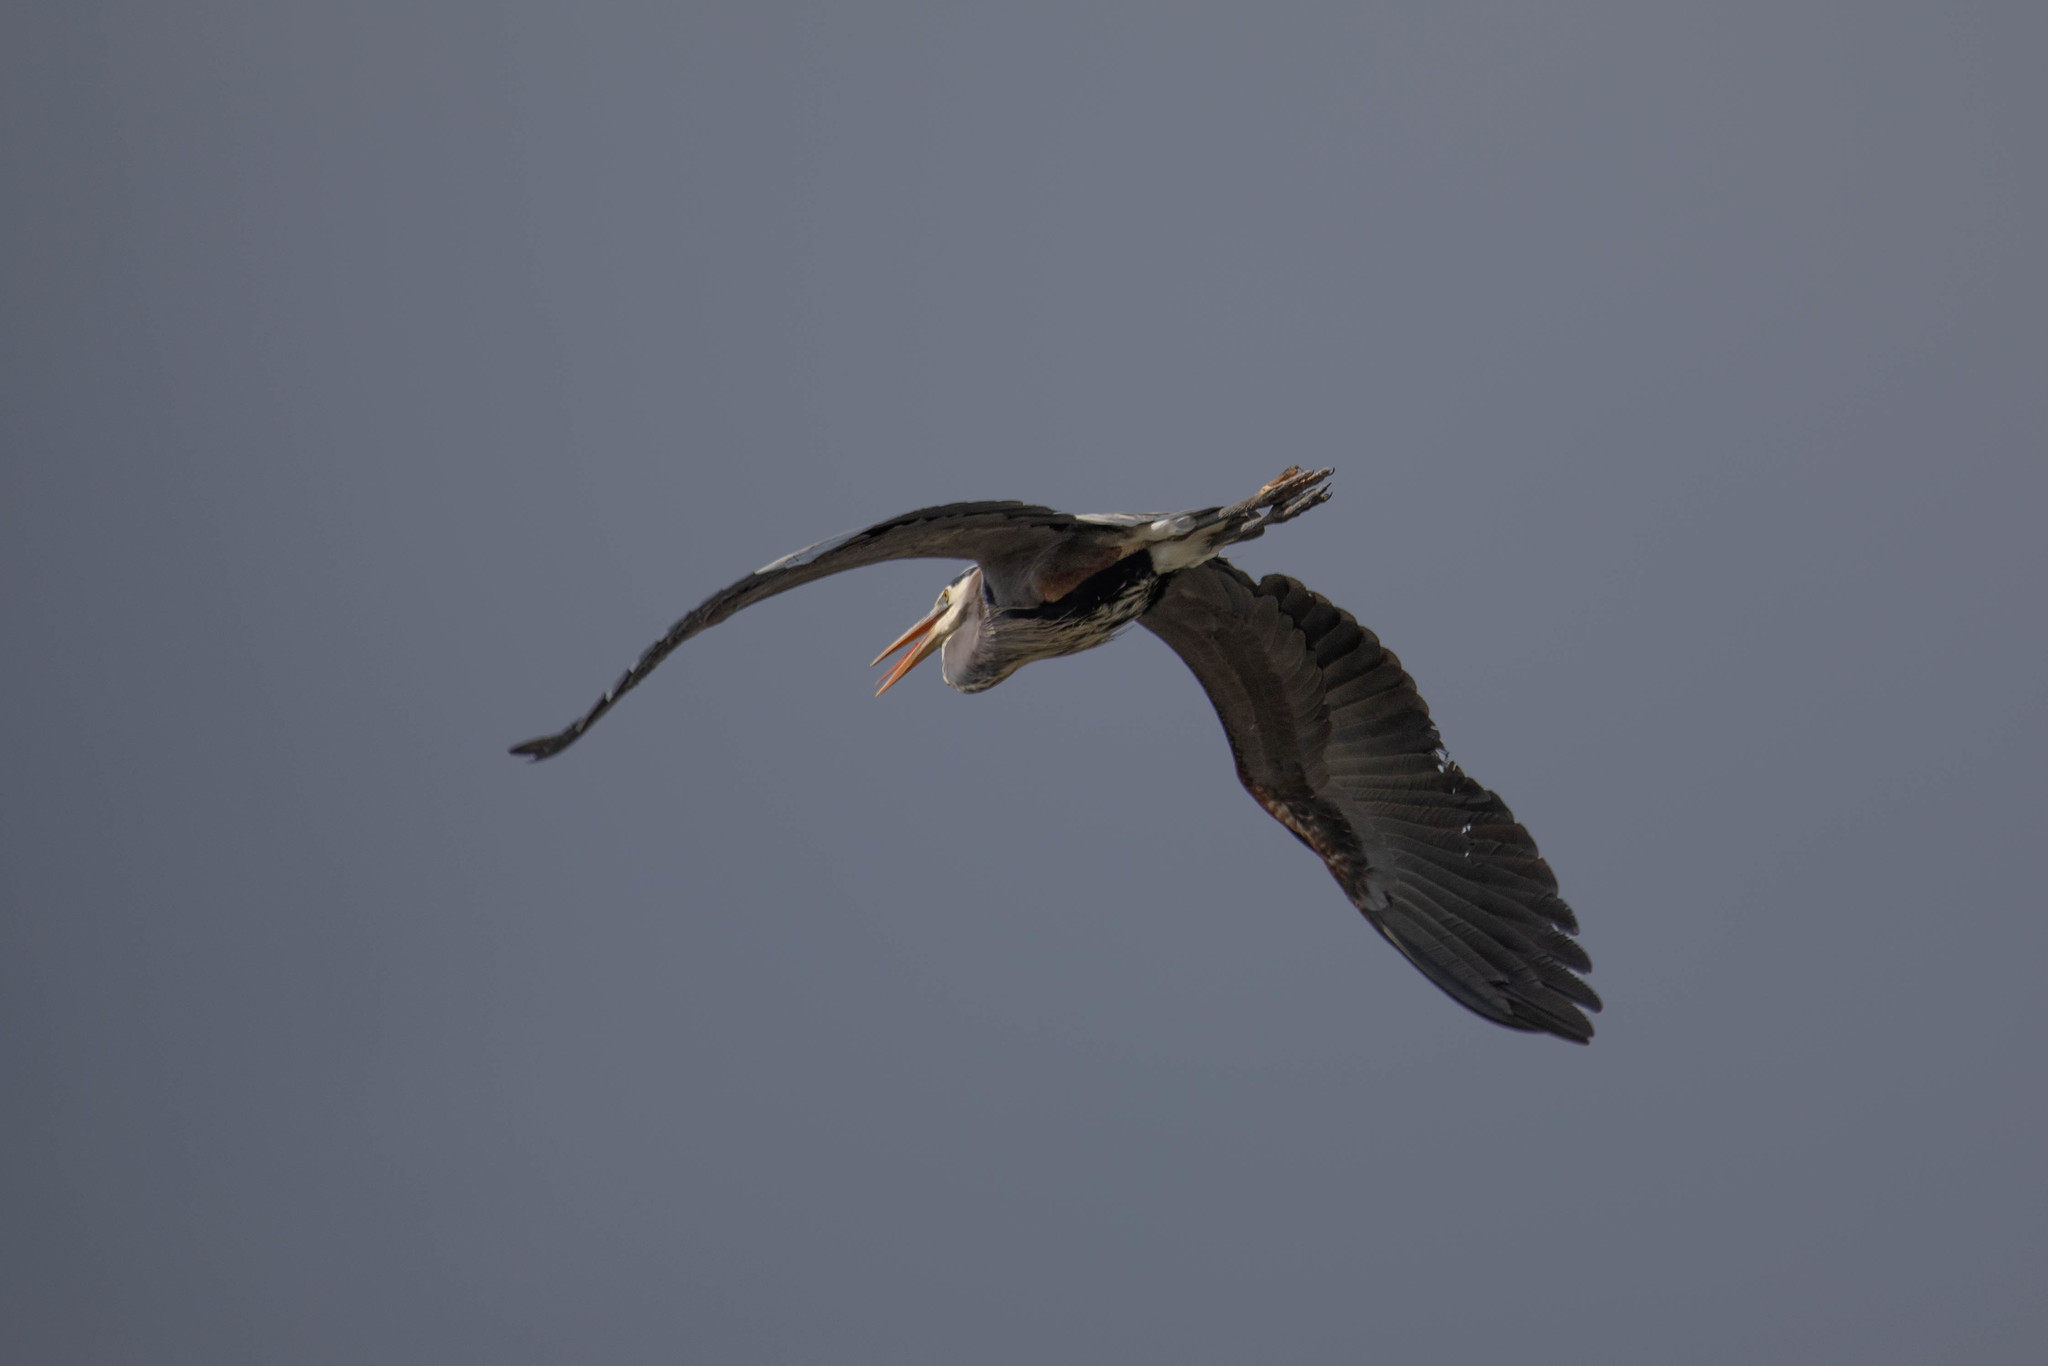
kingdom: Animalia
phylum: Chordata
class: Aves
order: Pelecaniformes
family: Ardeidae
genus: Ardea
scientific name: Ardea herodias
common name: Great blue heron
